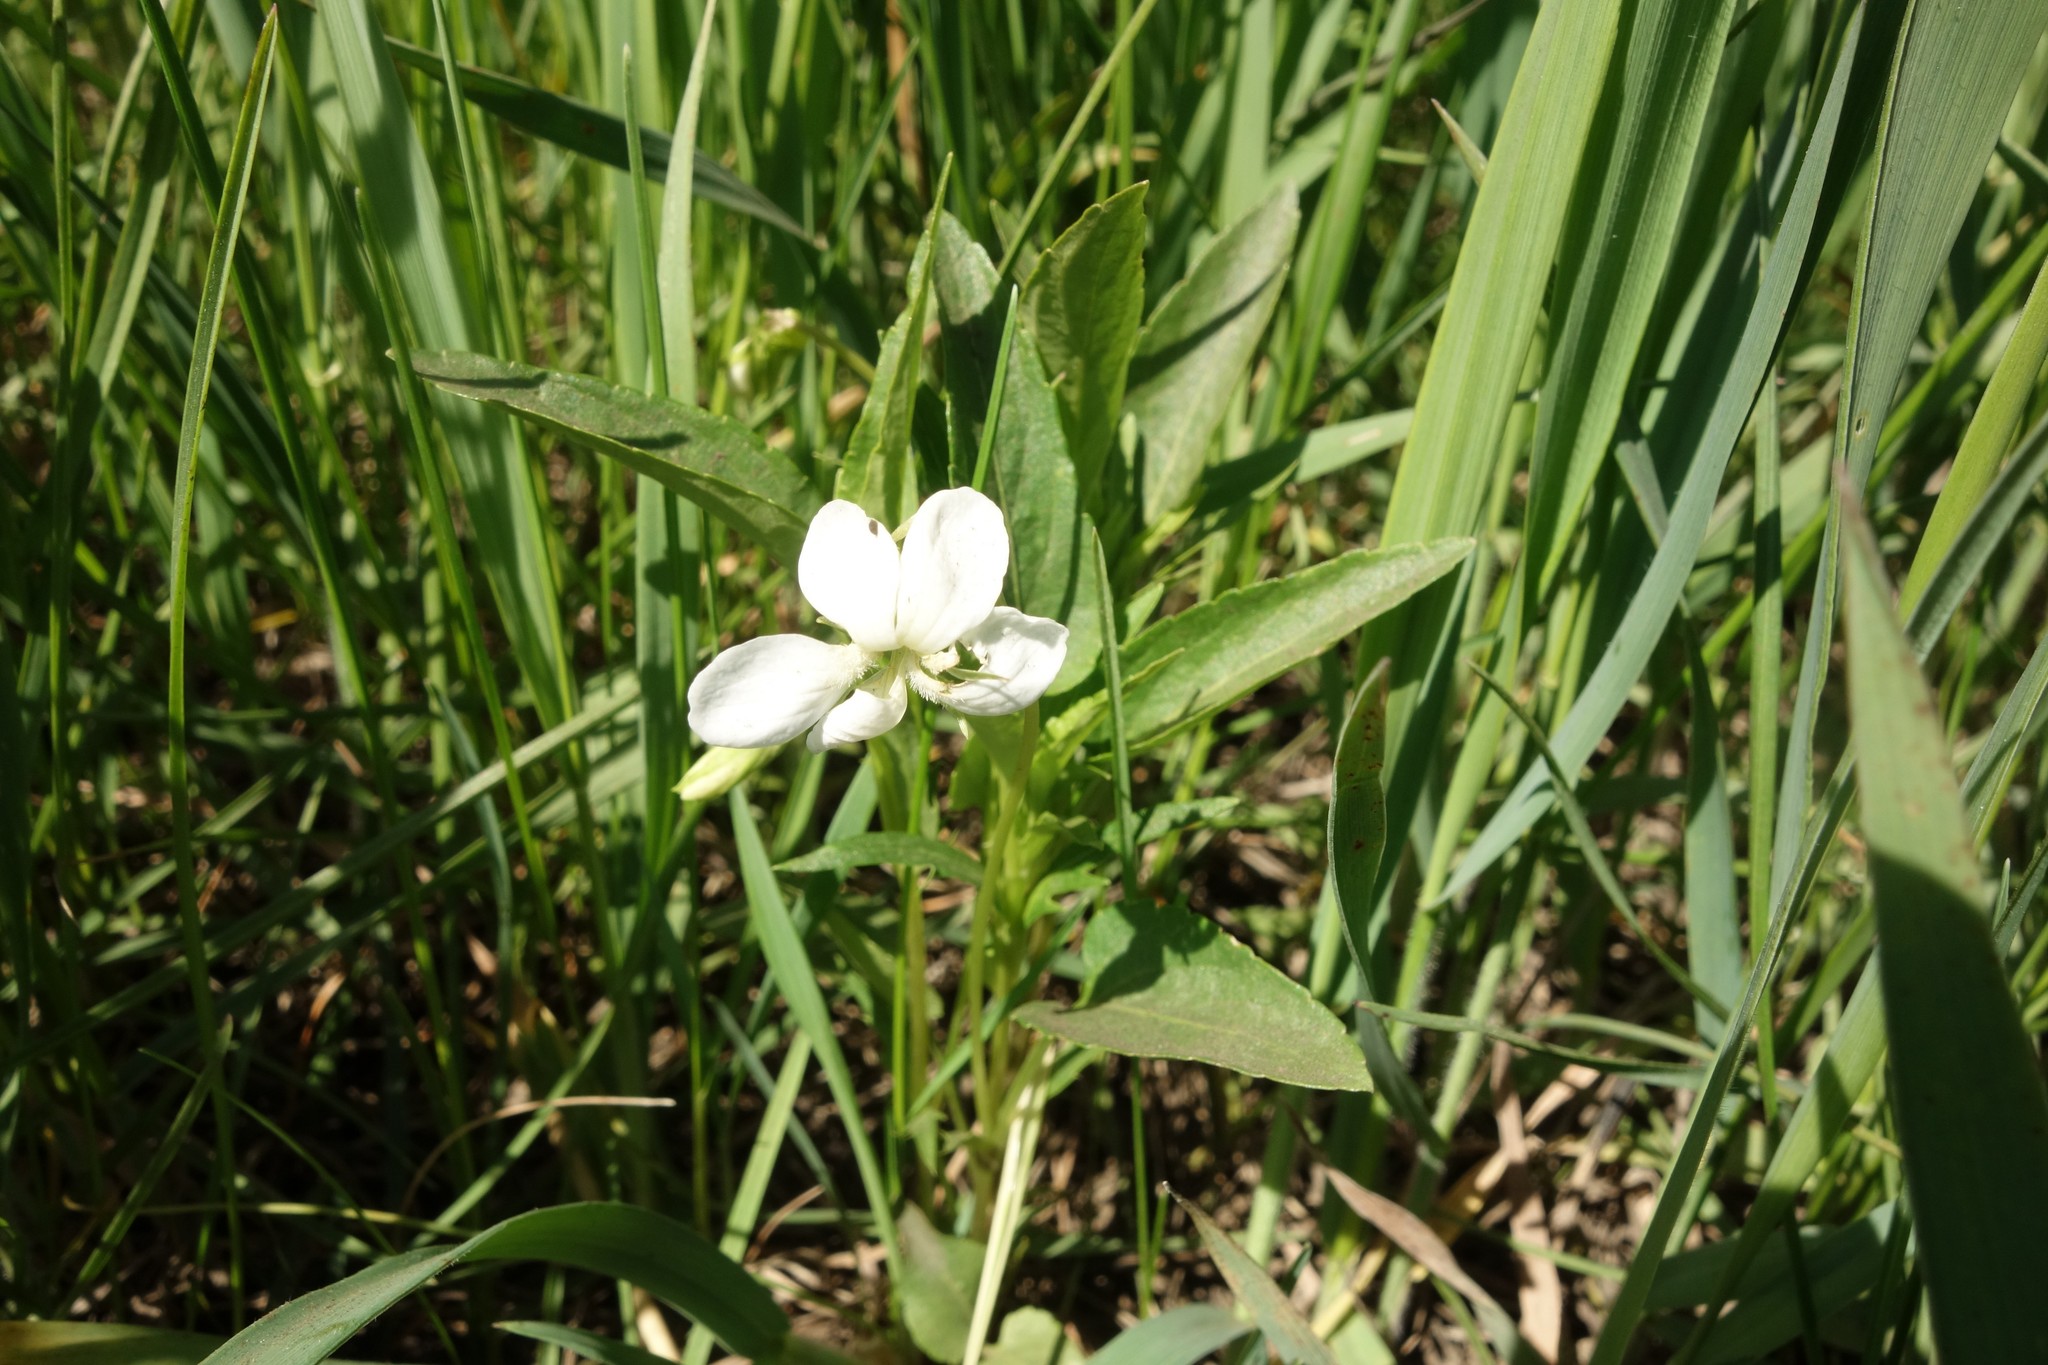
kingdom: Plantae
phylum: Tracheophyta
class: Magnoliopsida
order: Malpighiales
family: Violaceae
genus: Viola
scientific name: Viola pumila
